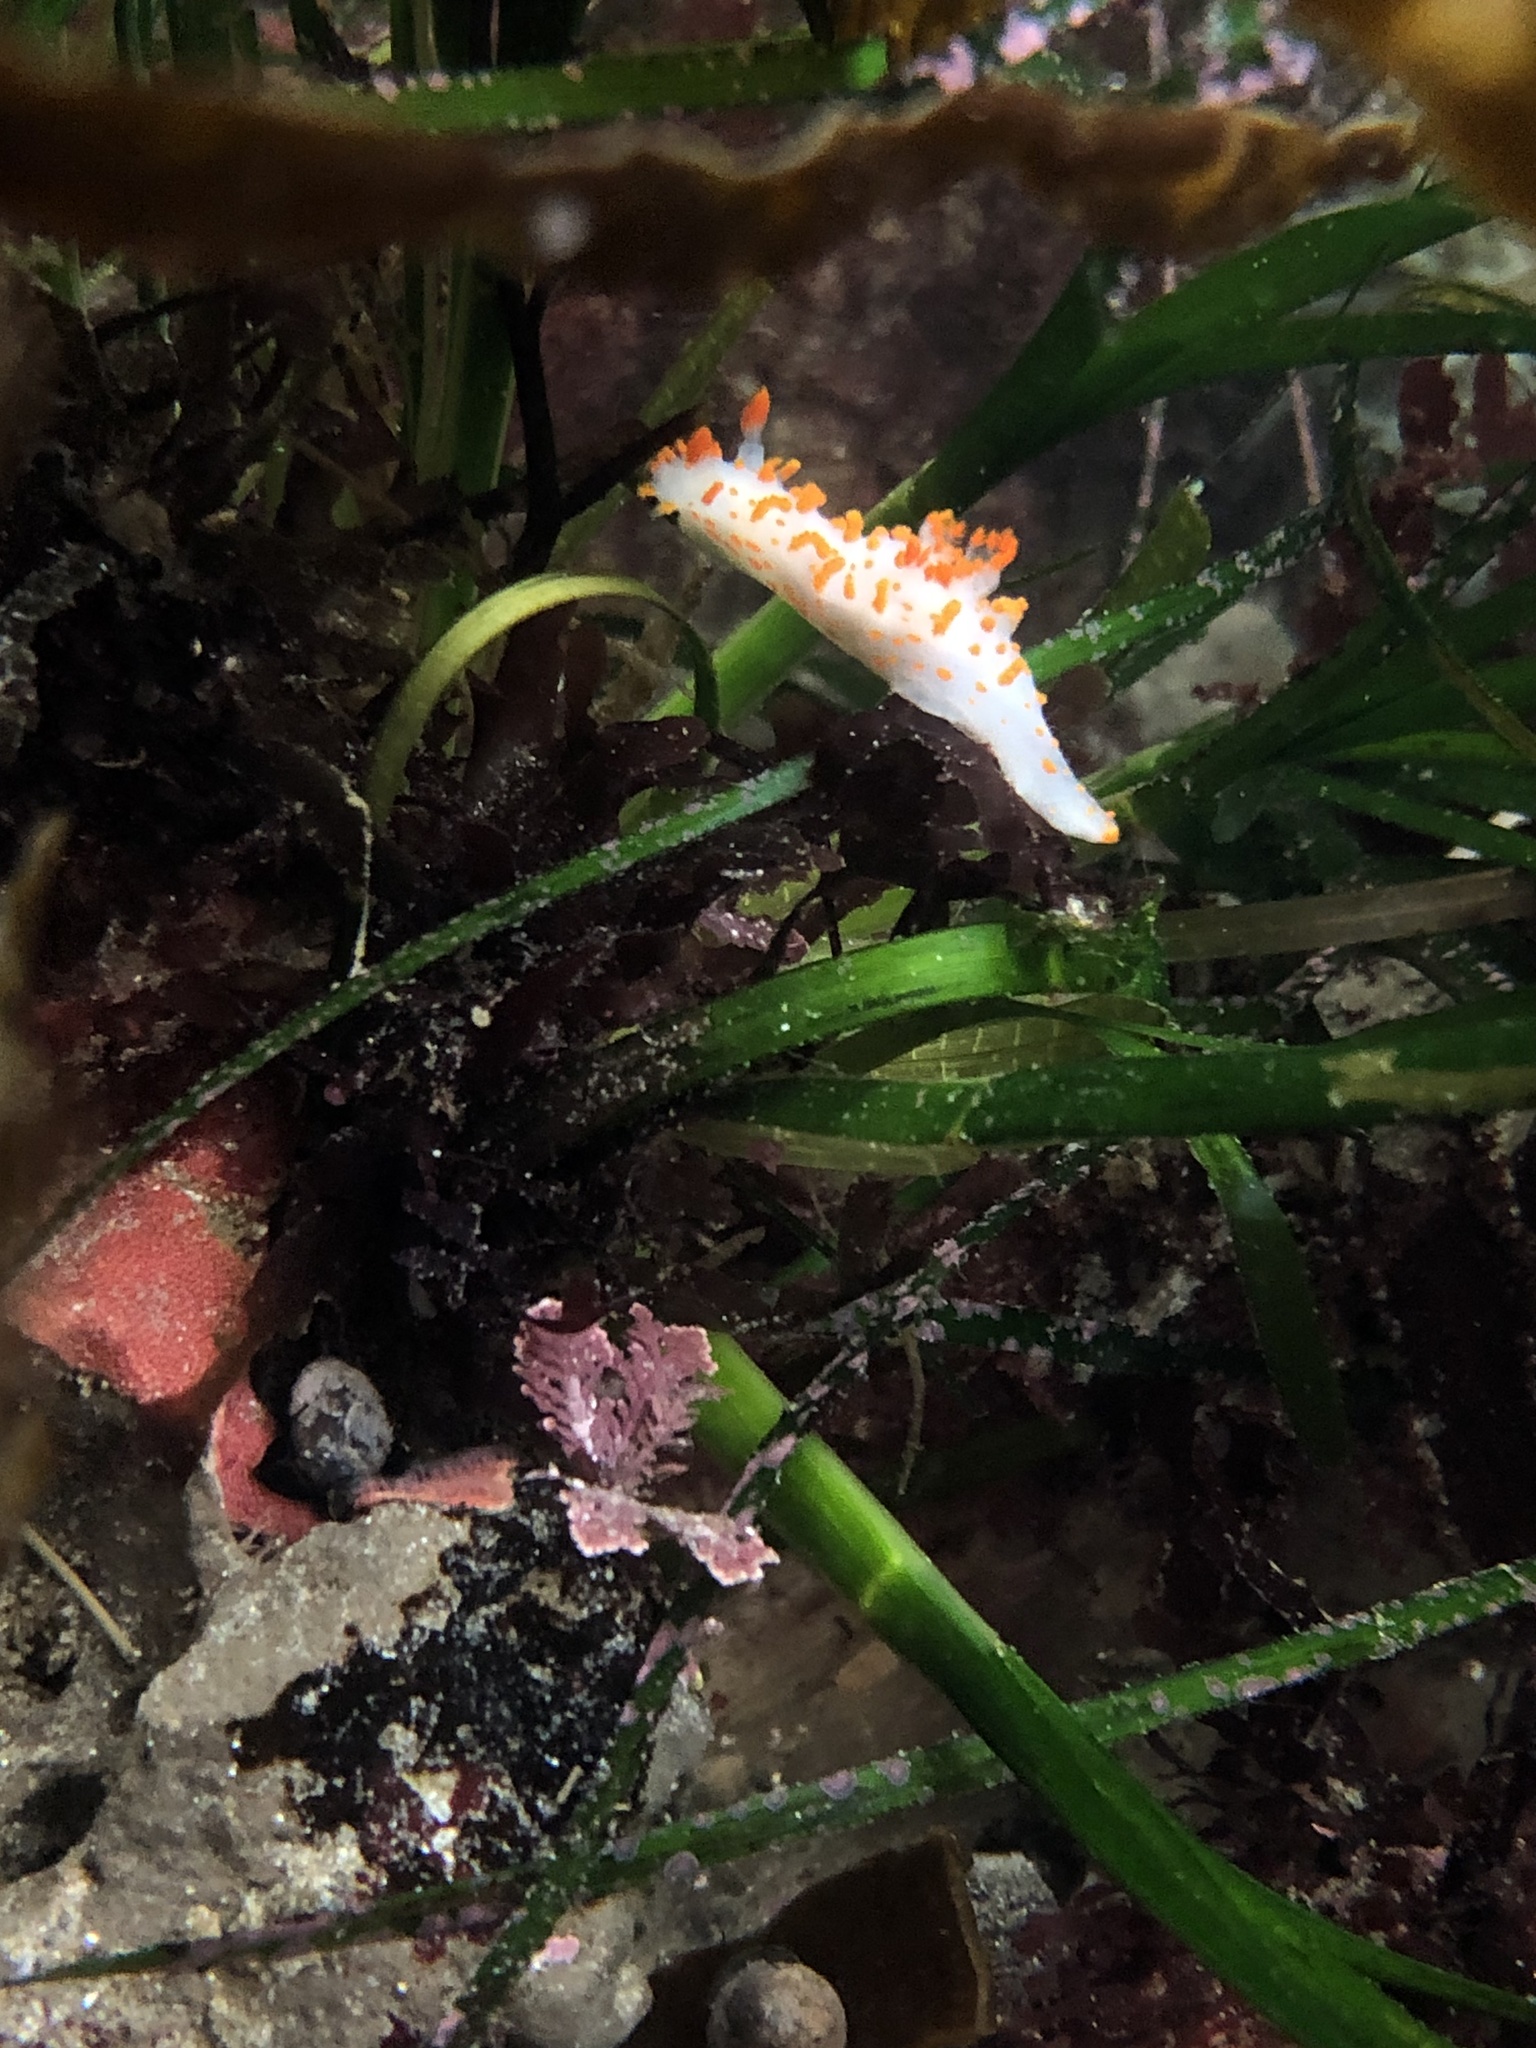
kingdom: Animalia
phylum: Mollusca
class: Gastropoda
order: Nudibranchia
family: Polyceridae
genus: Triopha
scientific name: Triopha catalinae
